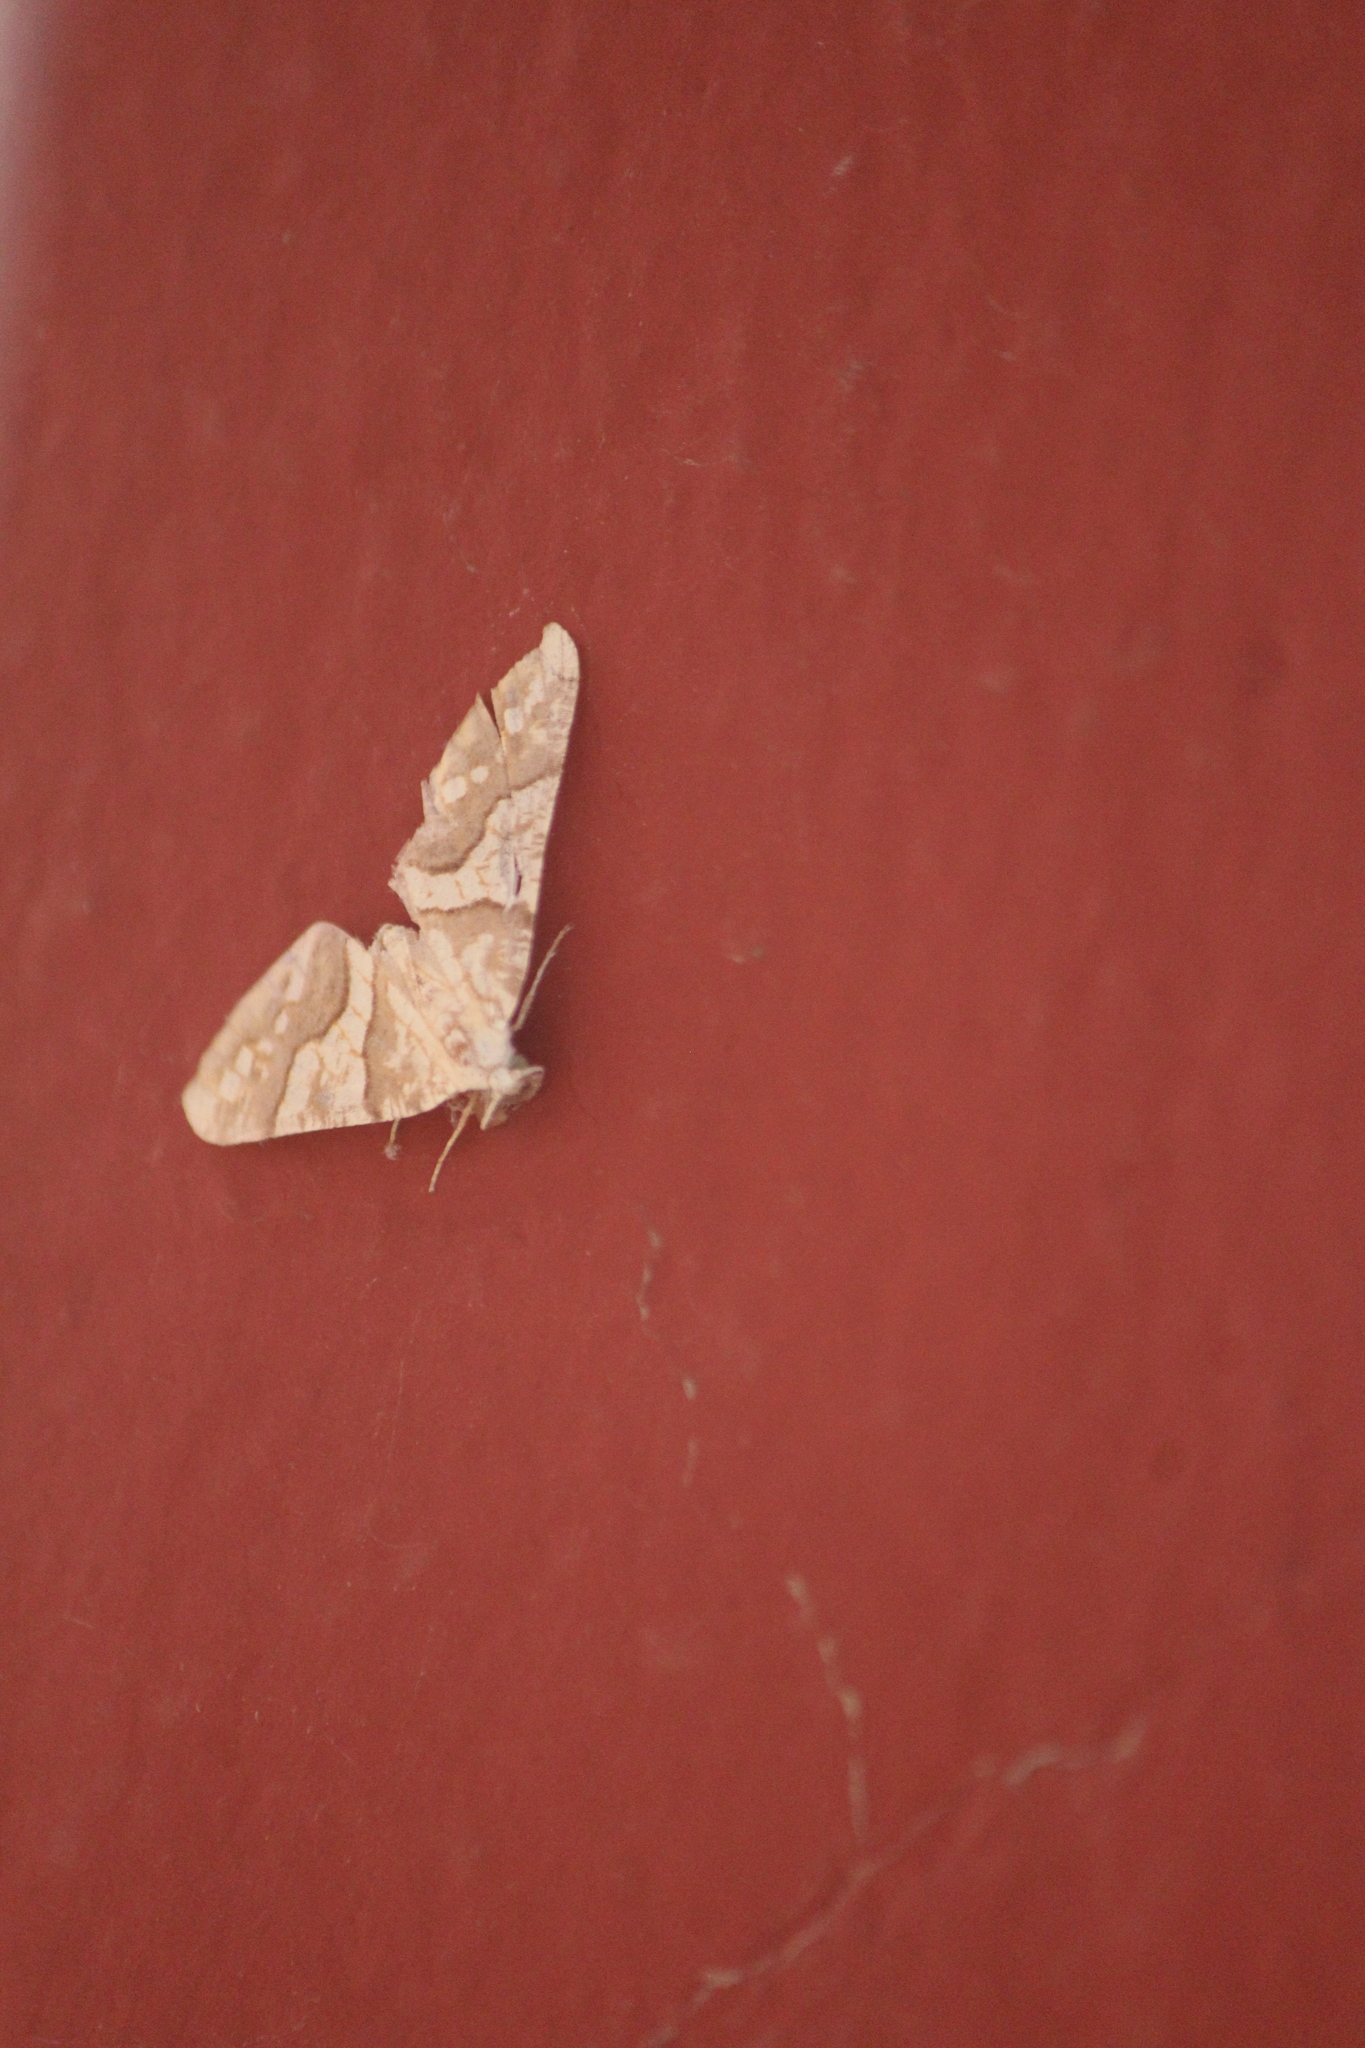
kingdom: Animalia
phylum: Arthropoda
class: Insecta
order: Lepidoptera
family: Geometridae
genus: Rindgeria
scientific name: Rindgeria ornata
